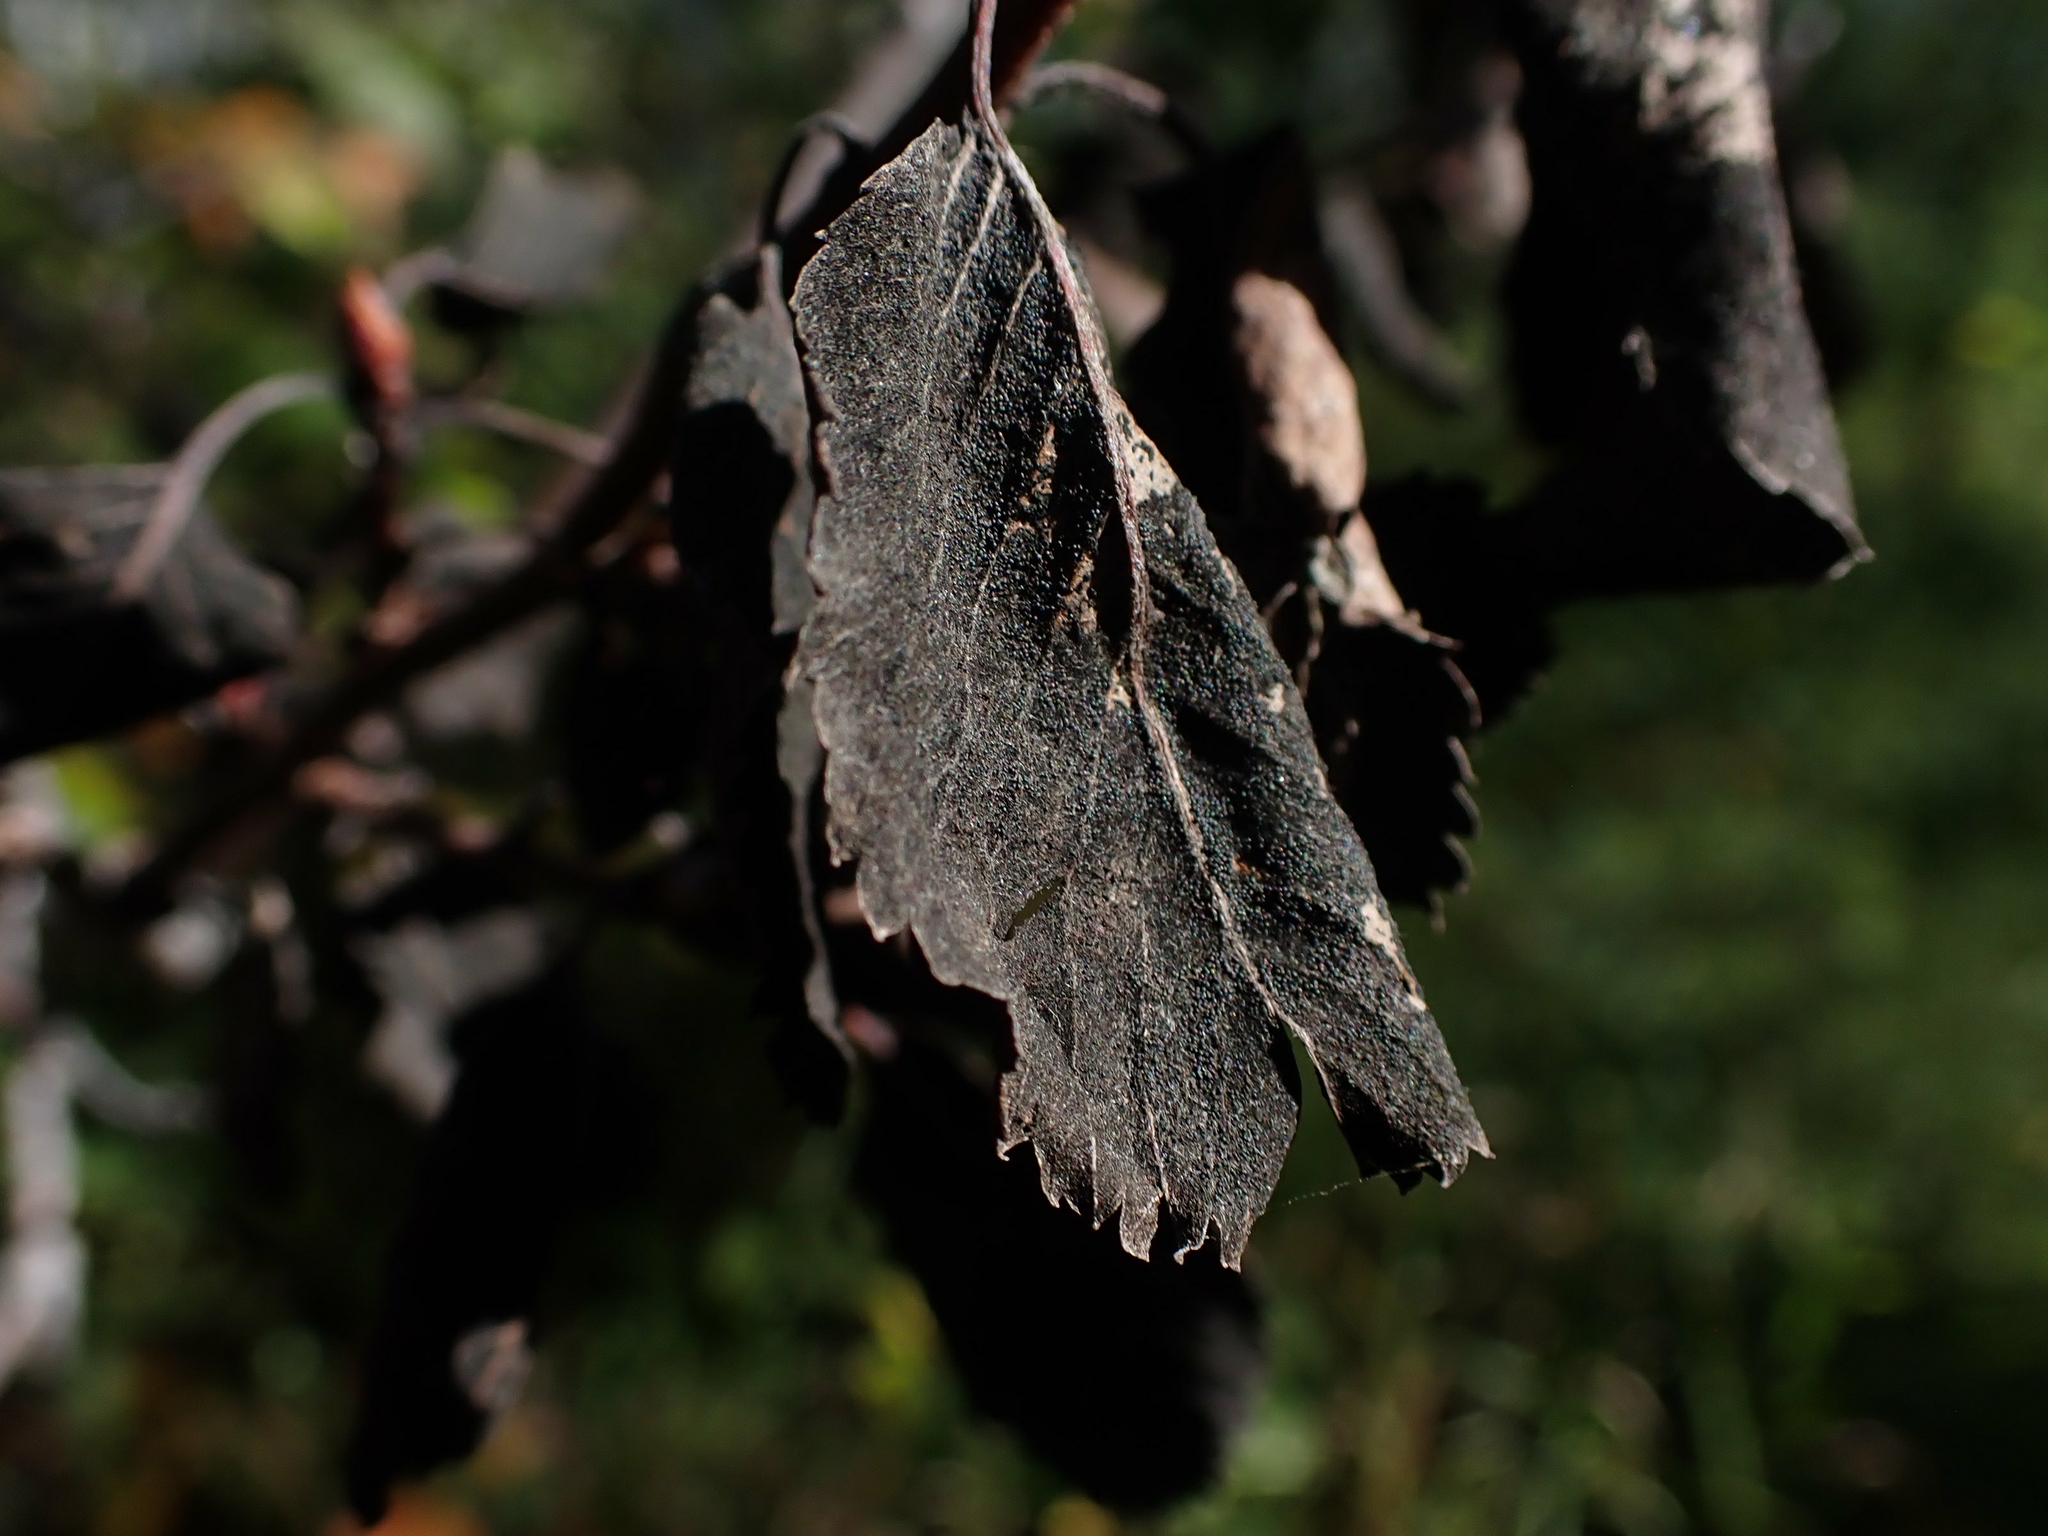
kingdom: Fungi
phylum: Ascomycota
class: Dothideomycetes
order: Venturiales
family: Venturiaceae
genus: Apiosporina
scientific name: Apiosporina collinsii
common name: Black leaf
